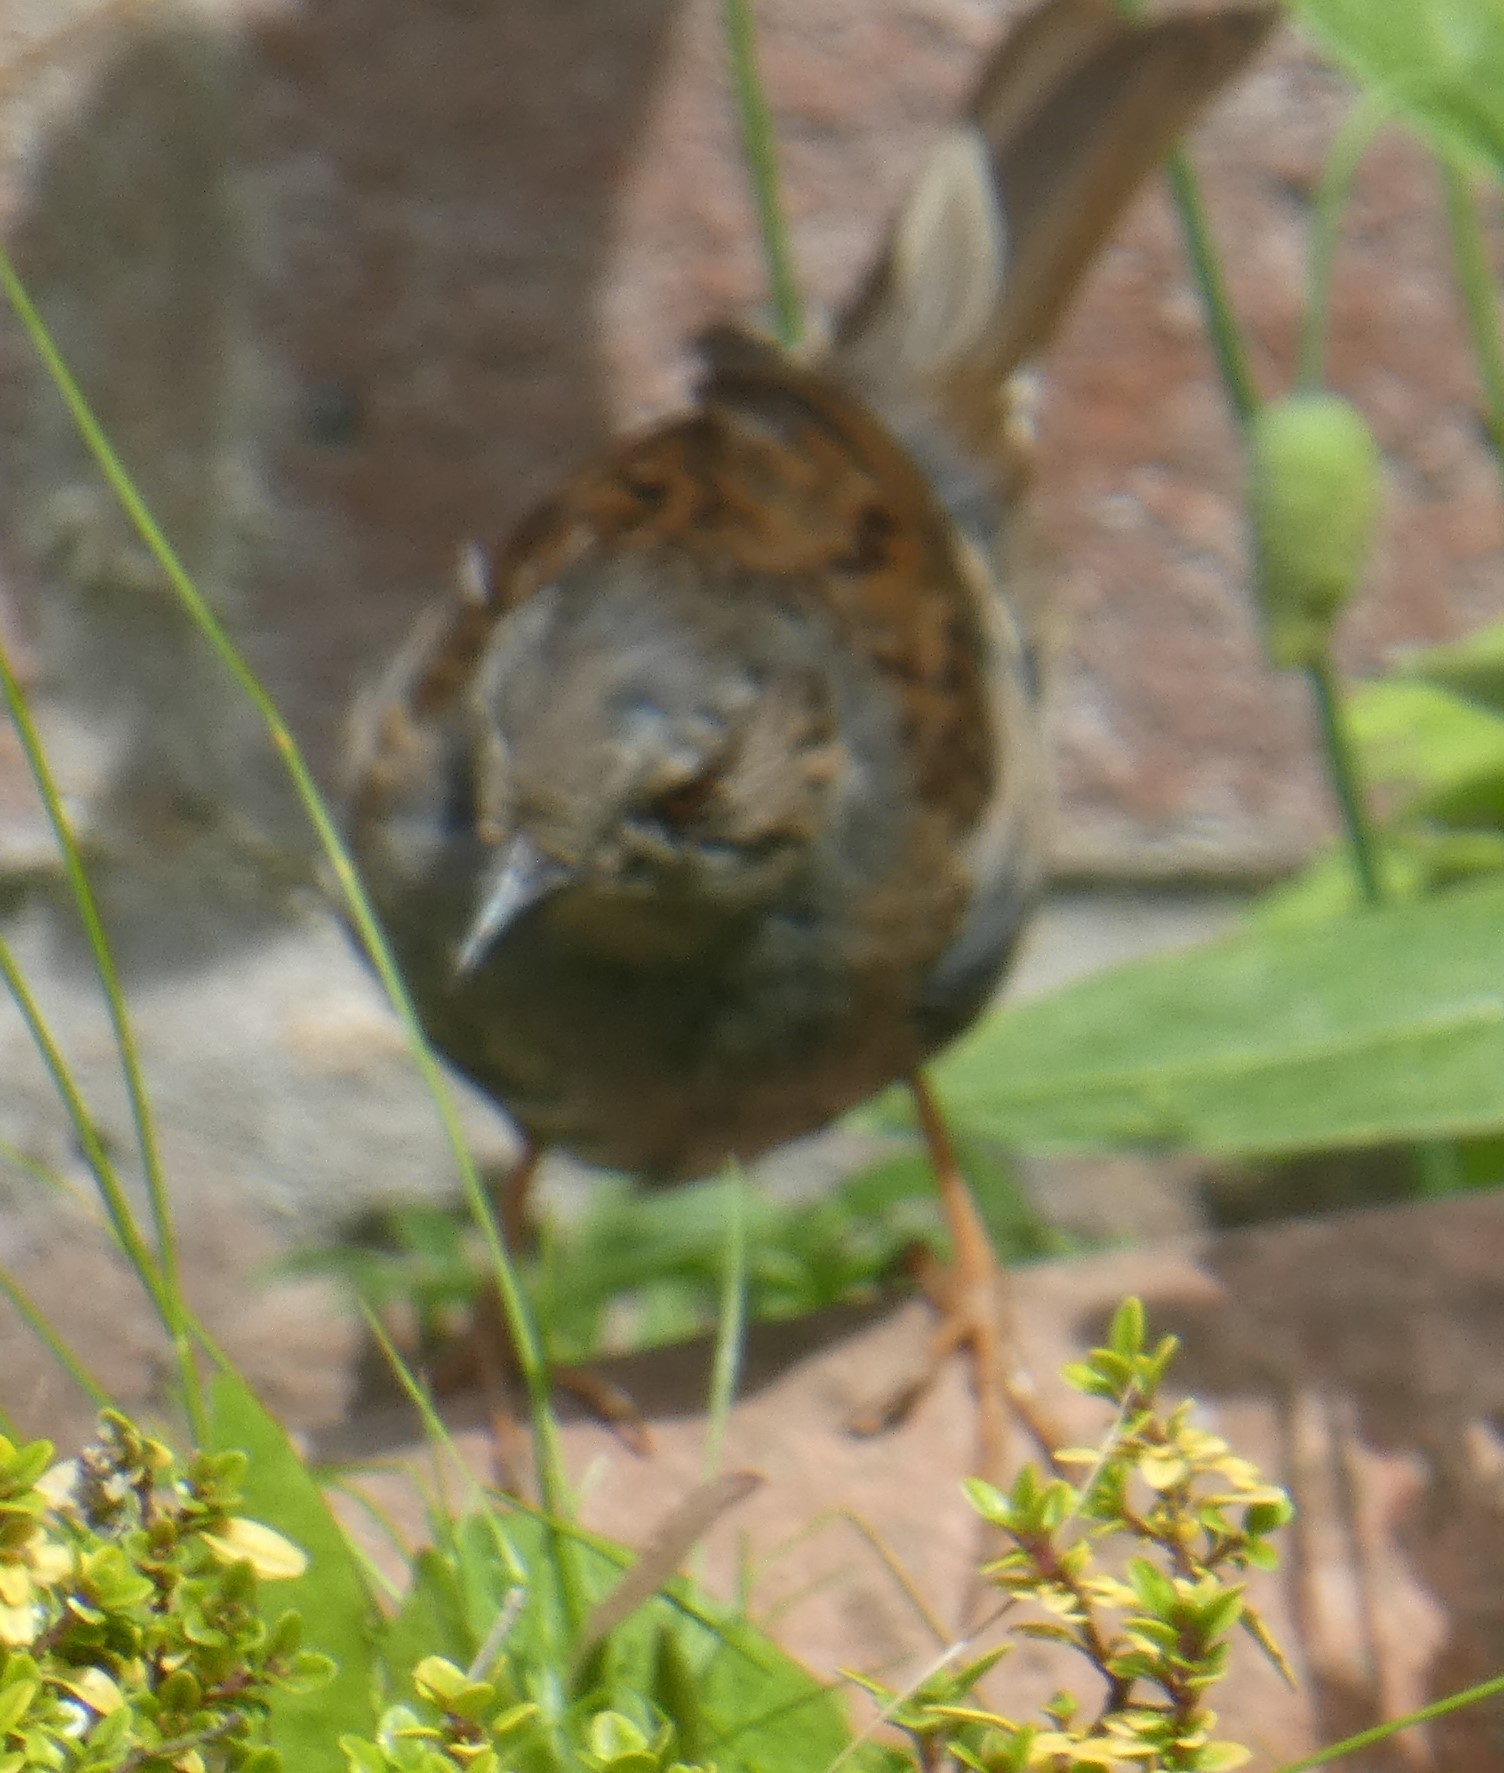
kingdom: Animalia
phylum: Chordata
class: Aves
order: Passeriformes
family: Prunellidae
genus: Prunella
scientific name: Prunella modularis
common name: Dunnock
